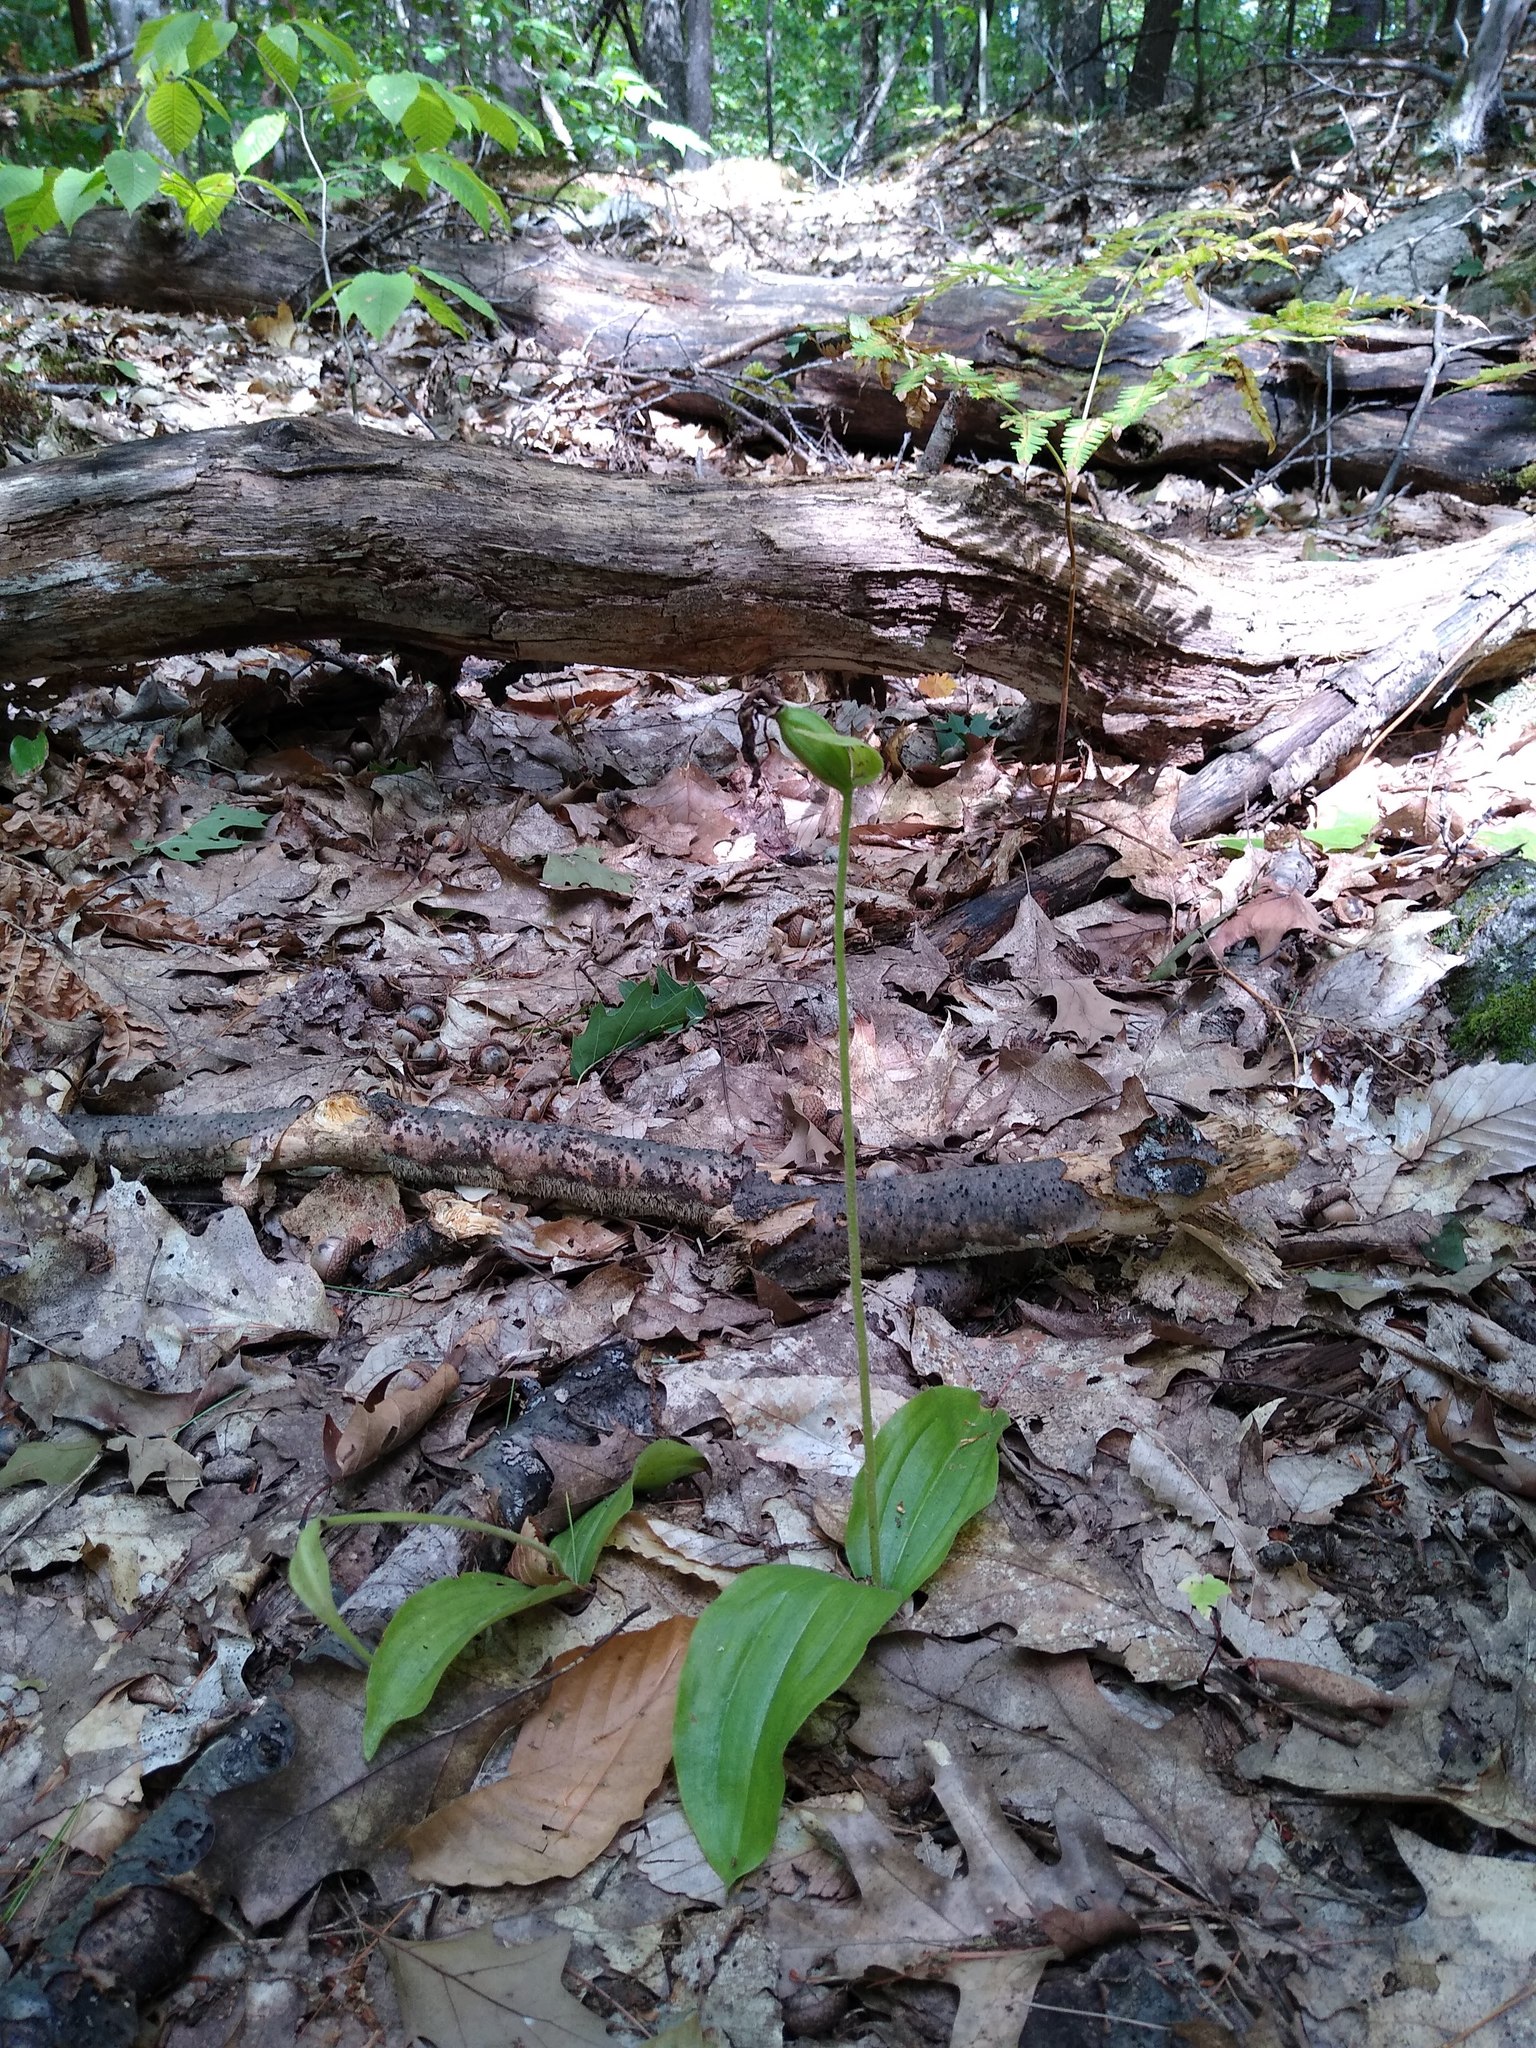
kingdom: Plantae
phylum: Tracheophyta
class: Liliopsida
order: Asparagales
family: Orchidaceae
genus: Cypripedium
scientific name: Cypripedium acaule
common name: Pink lady's-slipper
